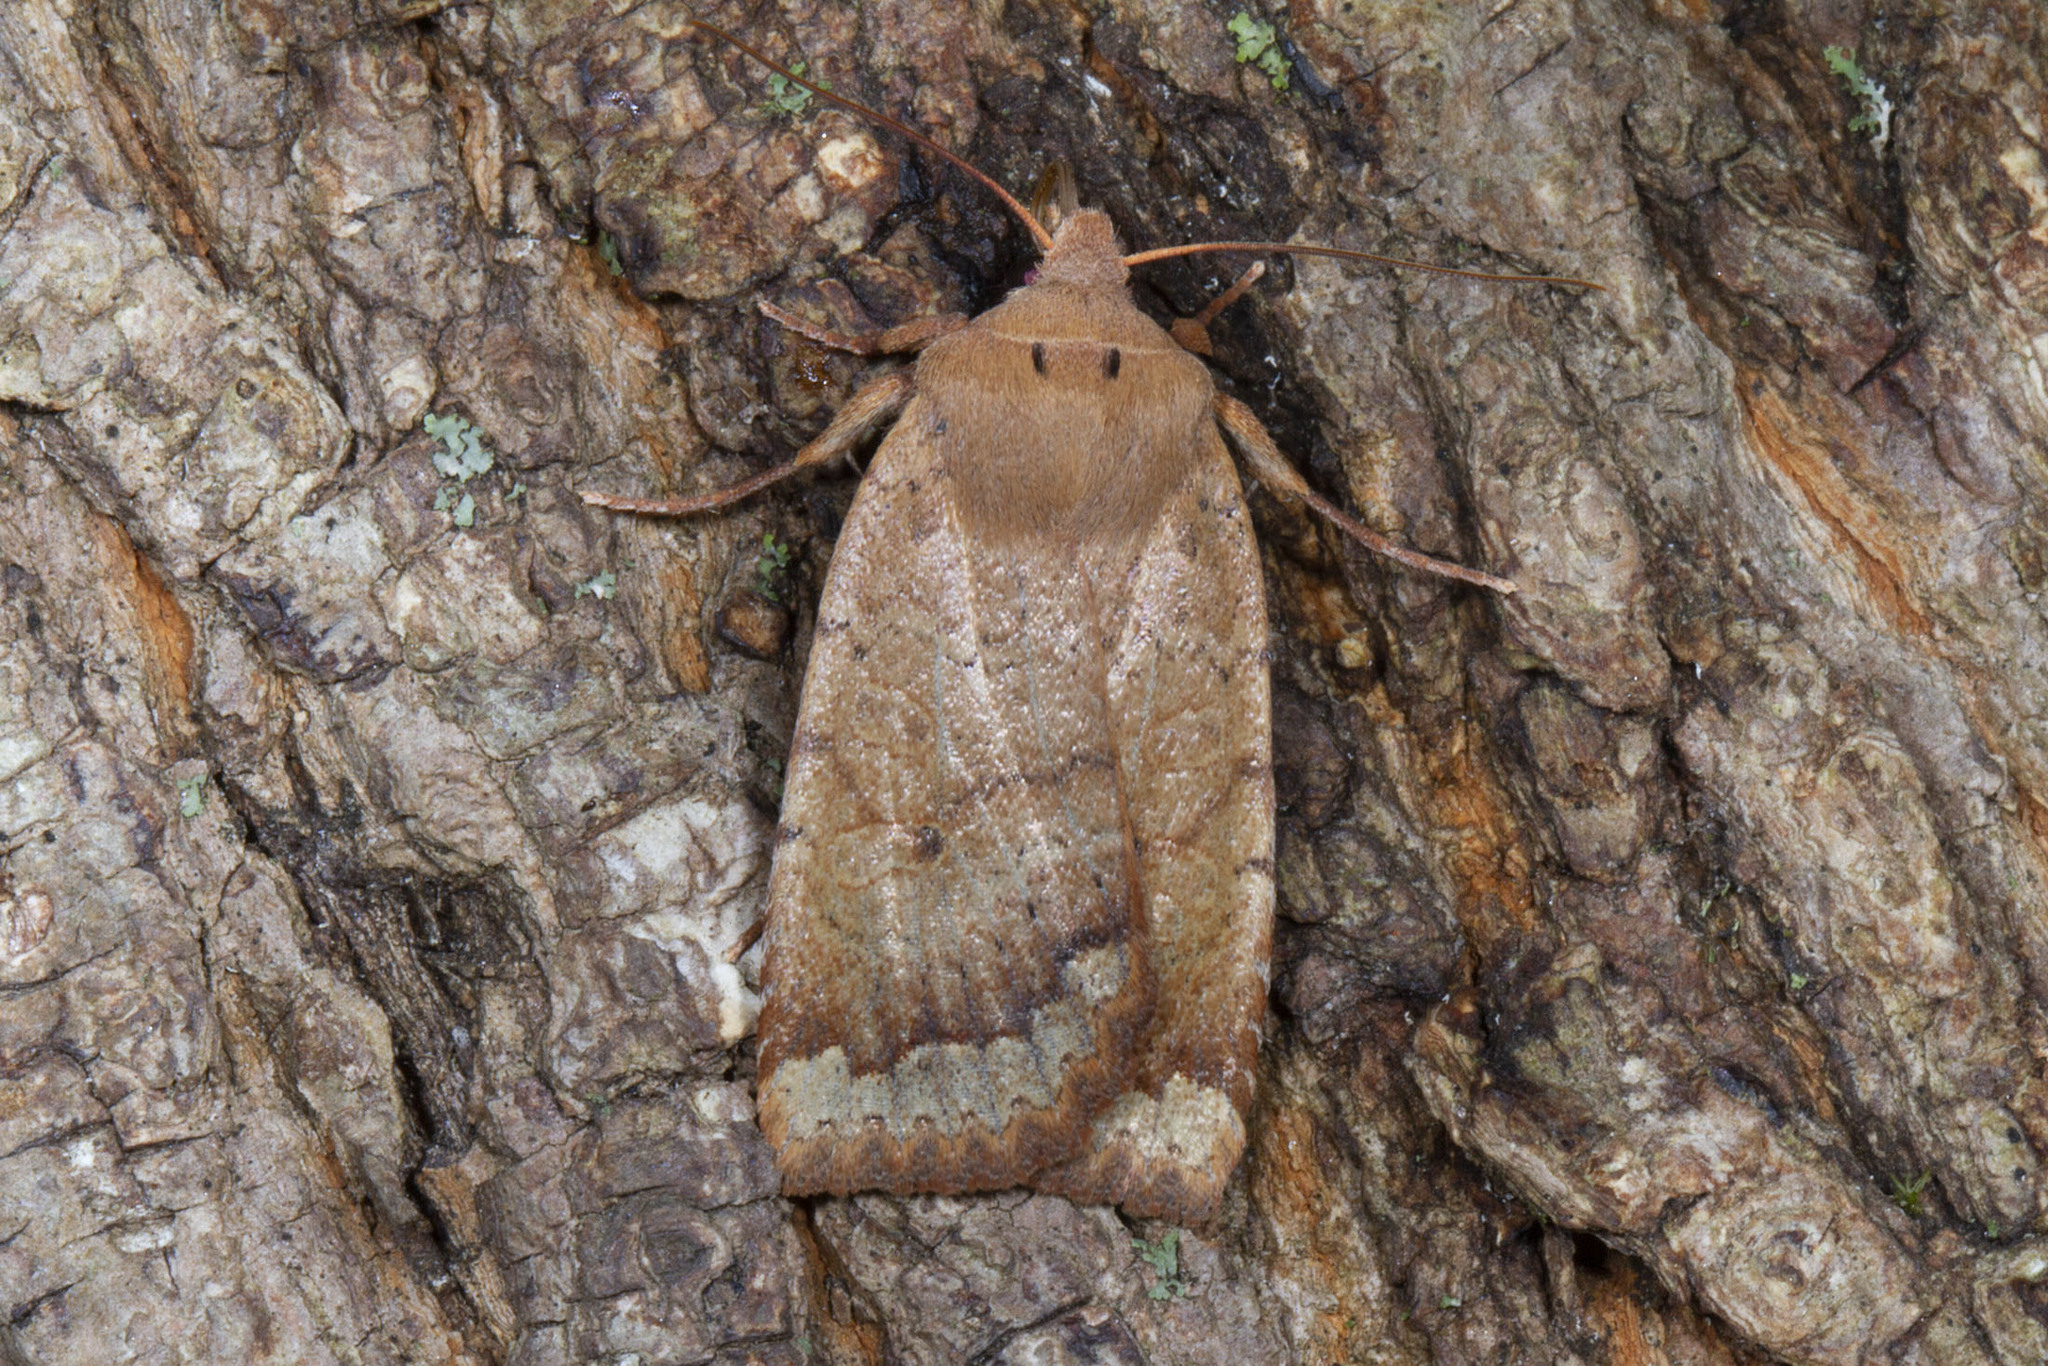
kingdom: Animalia
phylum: Arthropoda
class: Insecta
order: Lepidoptera
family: Noctuidae
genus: Sericaglaea
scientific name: Sericaglaea signata
